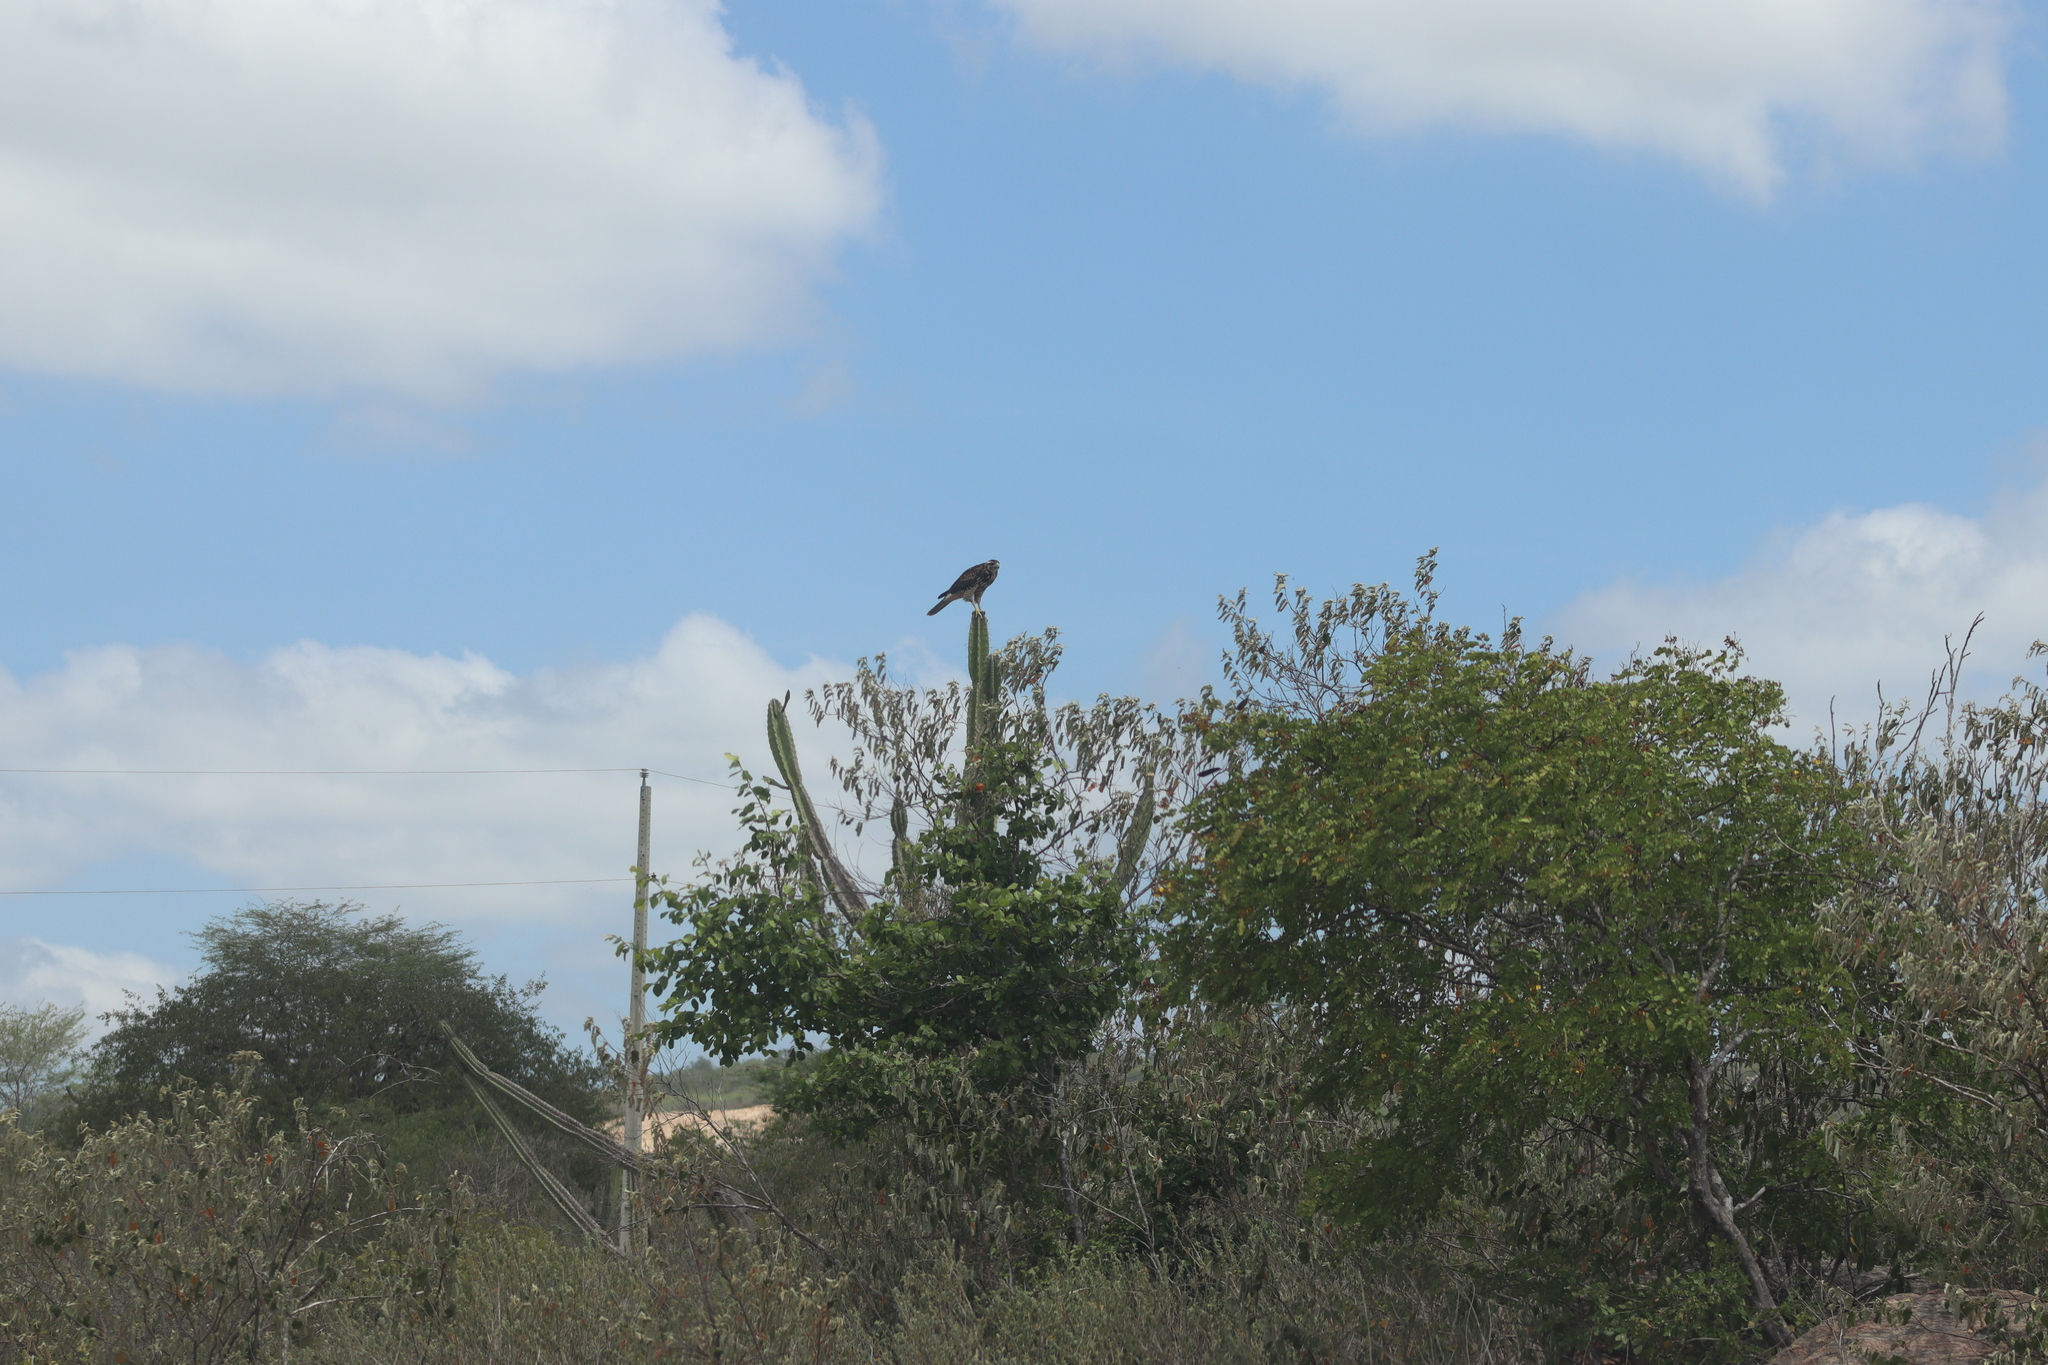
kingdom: Animalia
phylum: Chordata
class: Aves
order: Accipitriformes
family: Accipitridae
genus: Parabuteo
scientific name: Parabuteo unicinctus
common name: Harris's hawk
